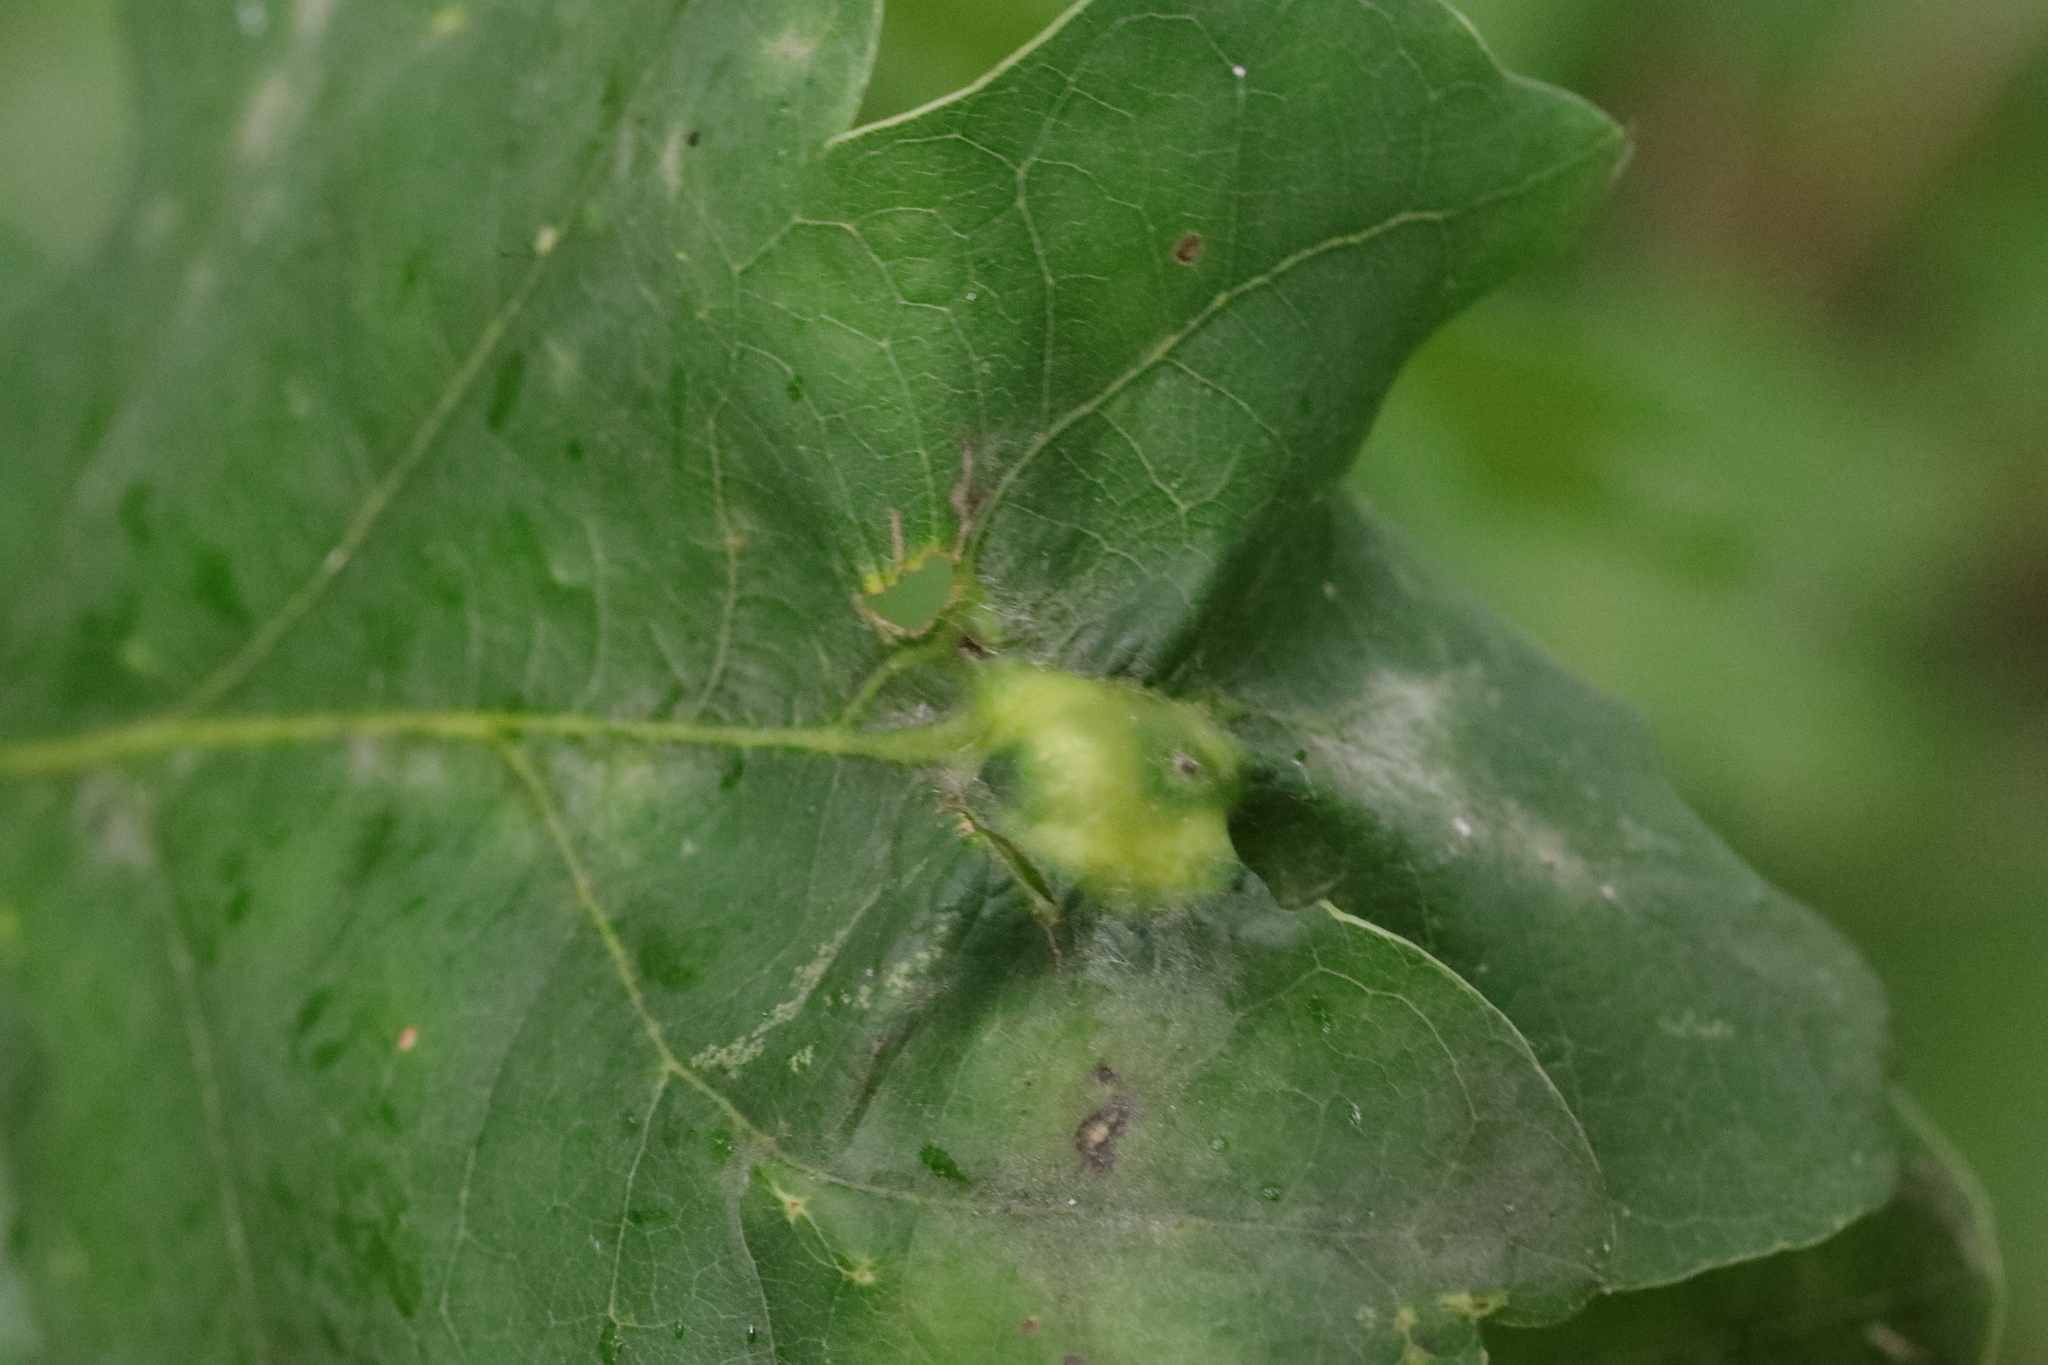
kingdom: Animalia
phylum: Arthropoda
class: Insecta
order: Hymenoptera
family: Cynipidae
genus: Andricus
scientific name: Andricus curvator
